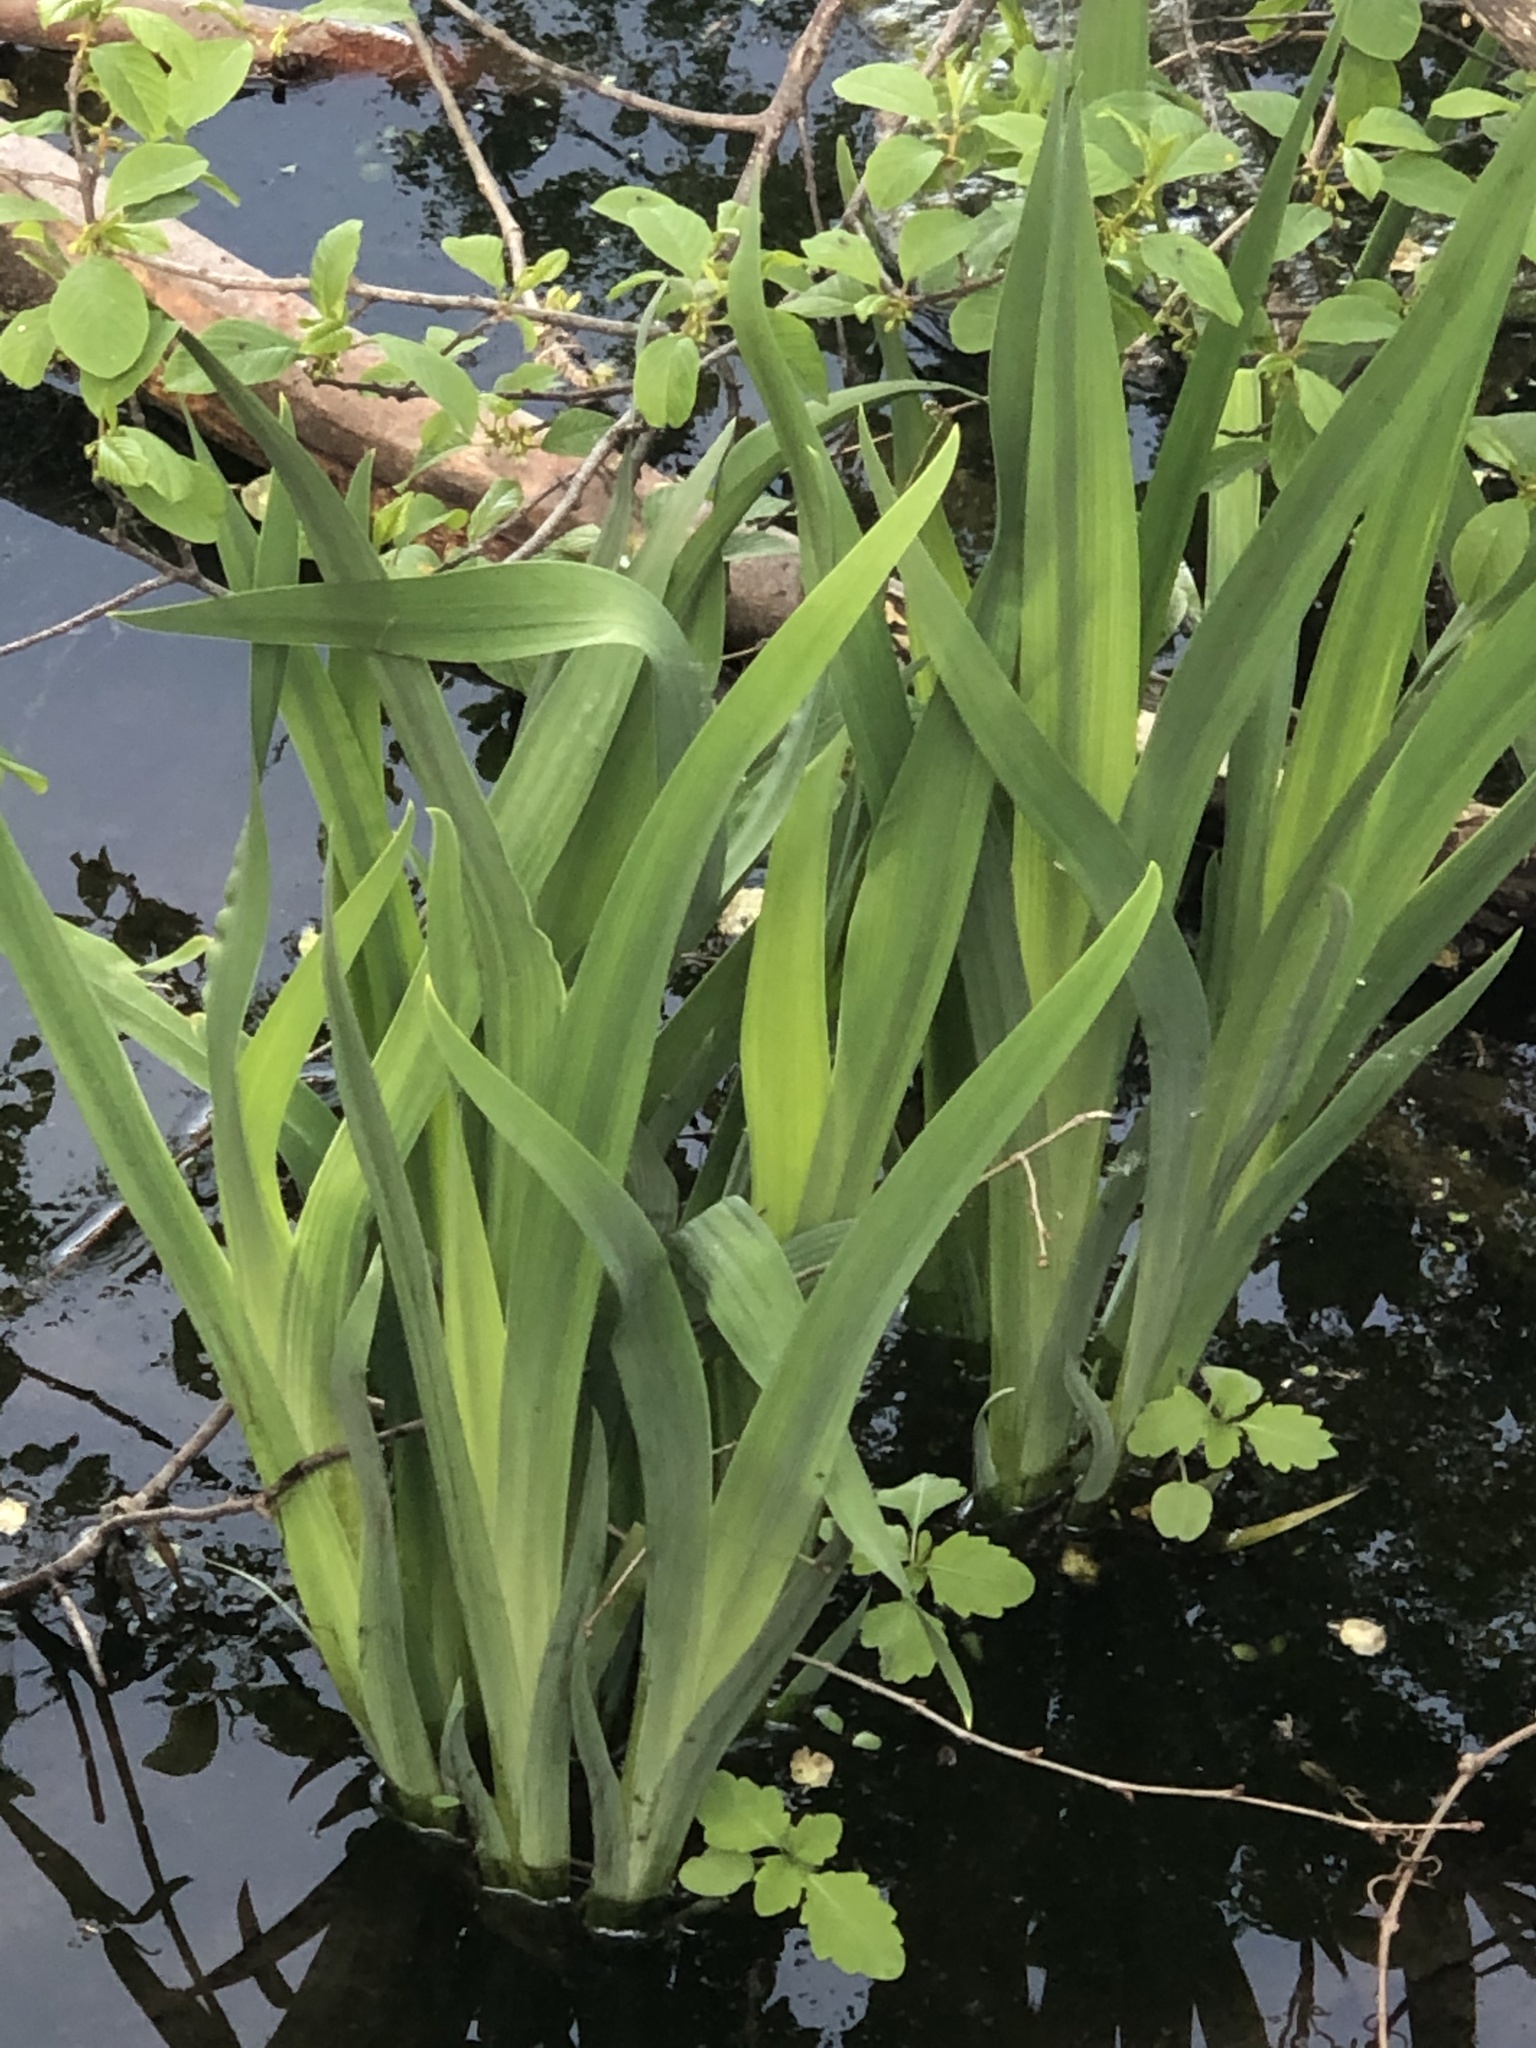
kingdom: Plantae
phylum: Tracheophyta
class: Liliopsida
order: Asparagales
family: Iridaceae
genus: Iris
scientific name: Iris versicolor
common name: Purple iris
